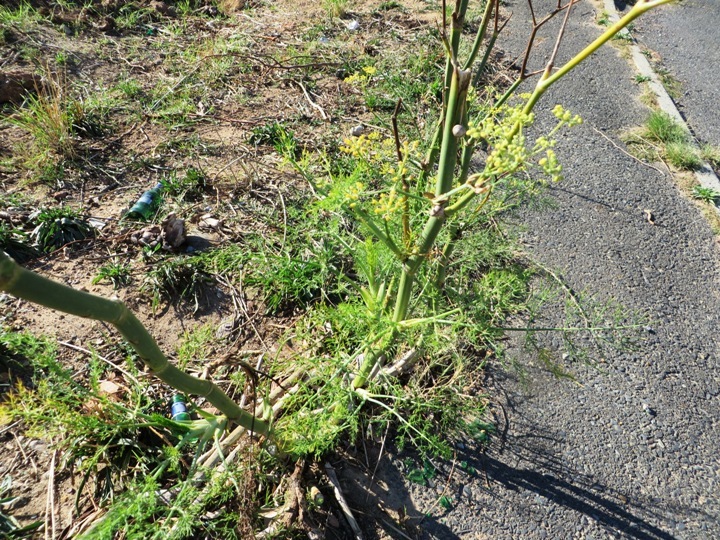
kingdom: Plantae
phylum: Tracheophyta
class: Magnoliopsida
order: Apiales
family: Apiaceae
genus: Foeniculum
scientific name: Foeniculum vulgare
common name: Fennel
